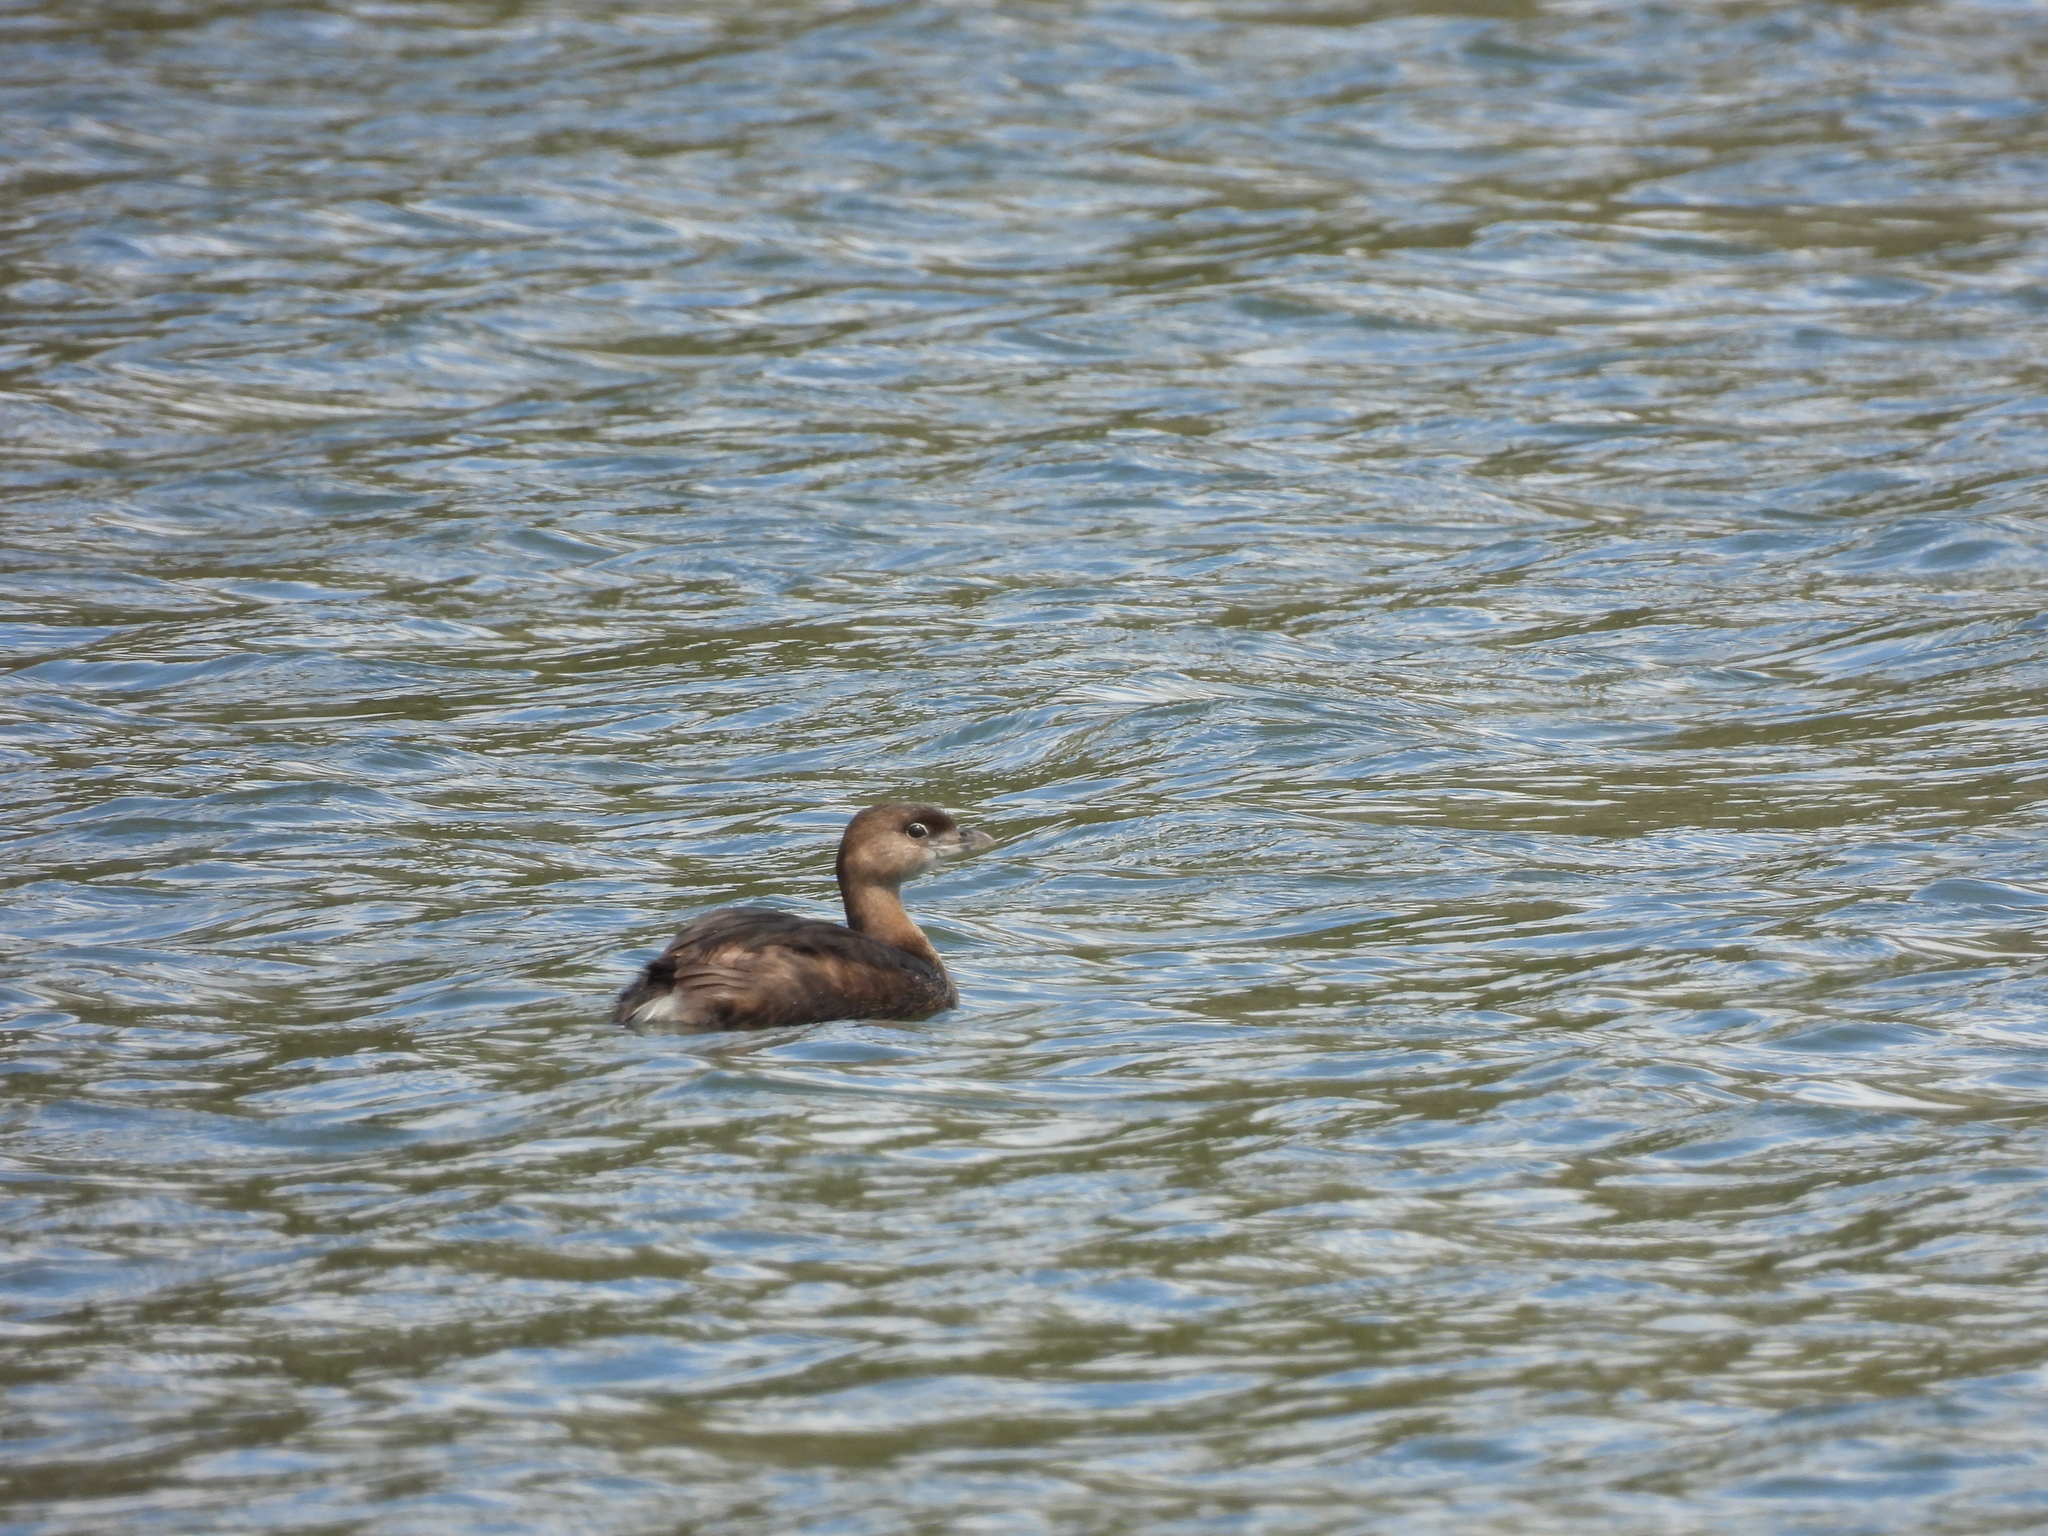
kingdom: Animalia
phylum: Chordata
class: Aves
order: Podicipediformes
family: Podicipedidae
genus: Podilymbus
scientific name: Podilymbus podiceps
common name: Pied-billed grebe
